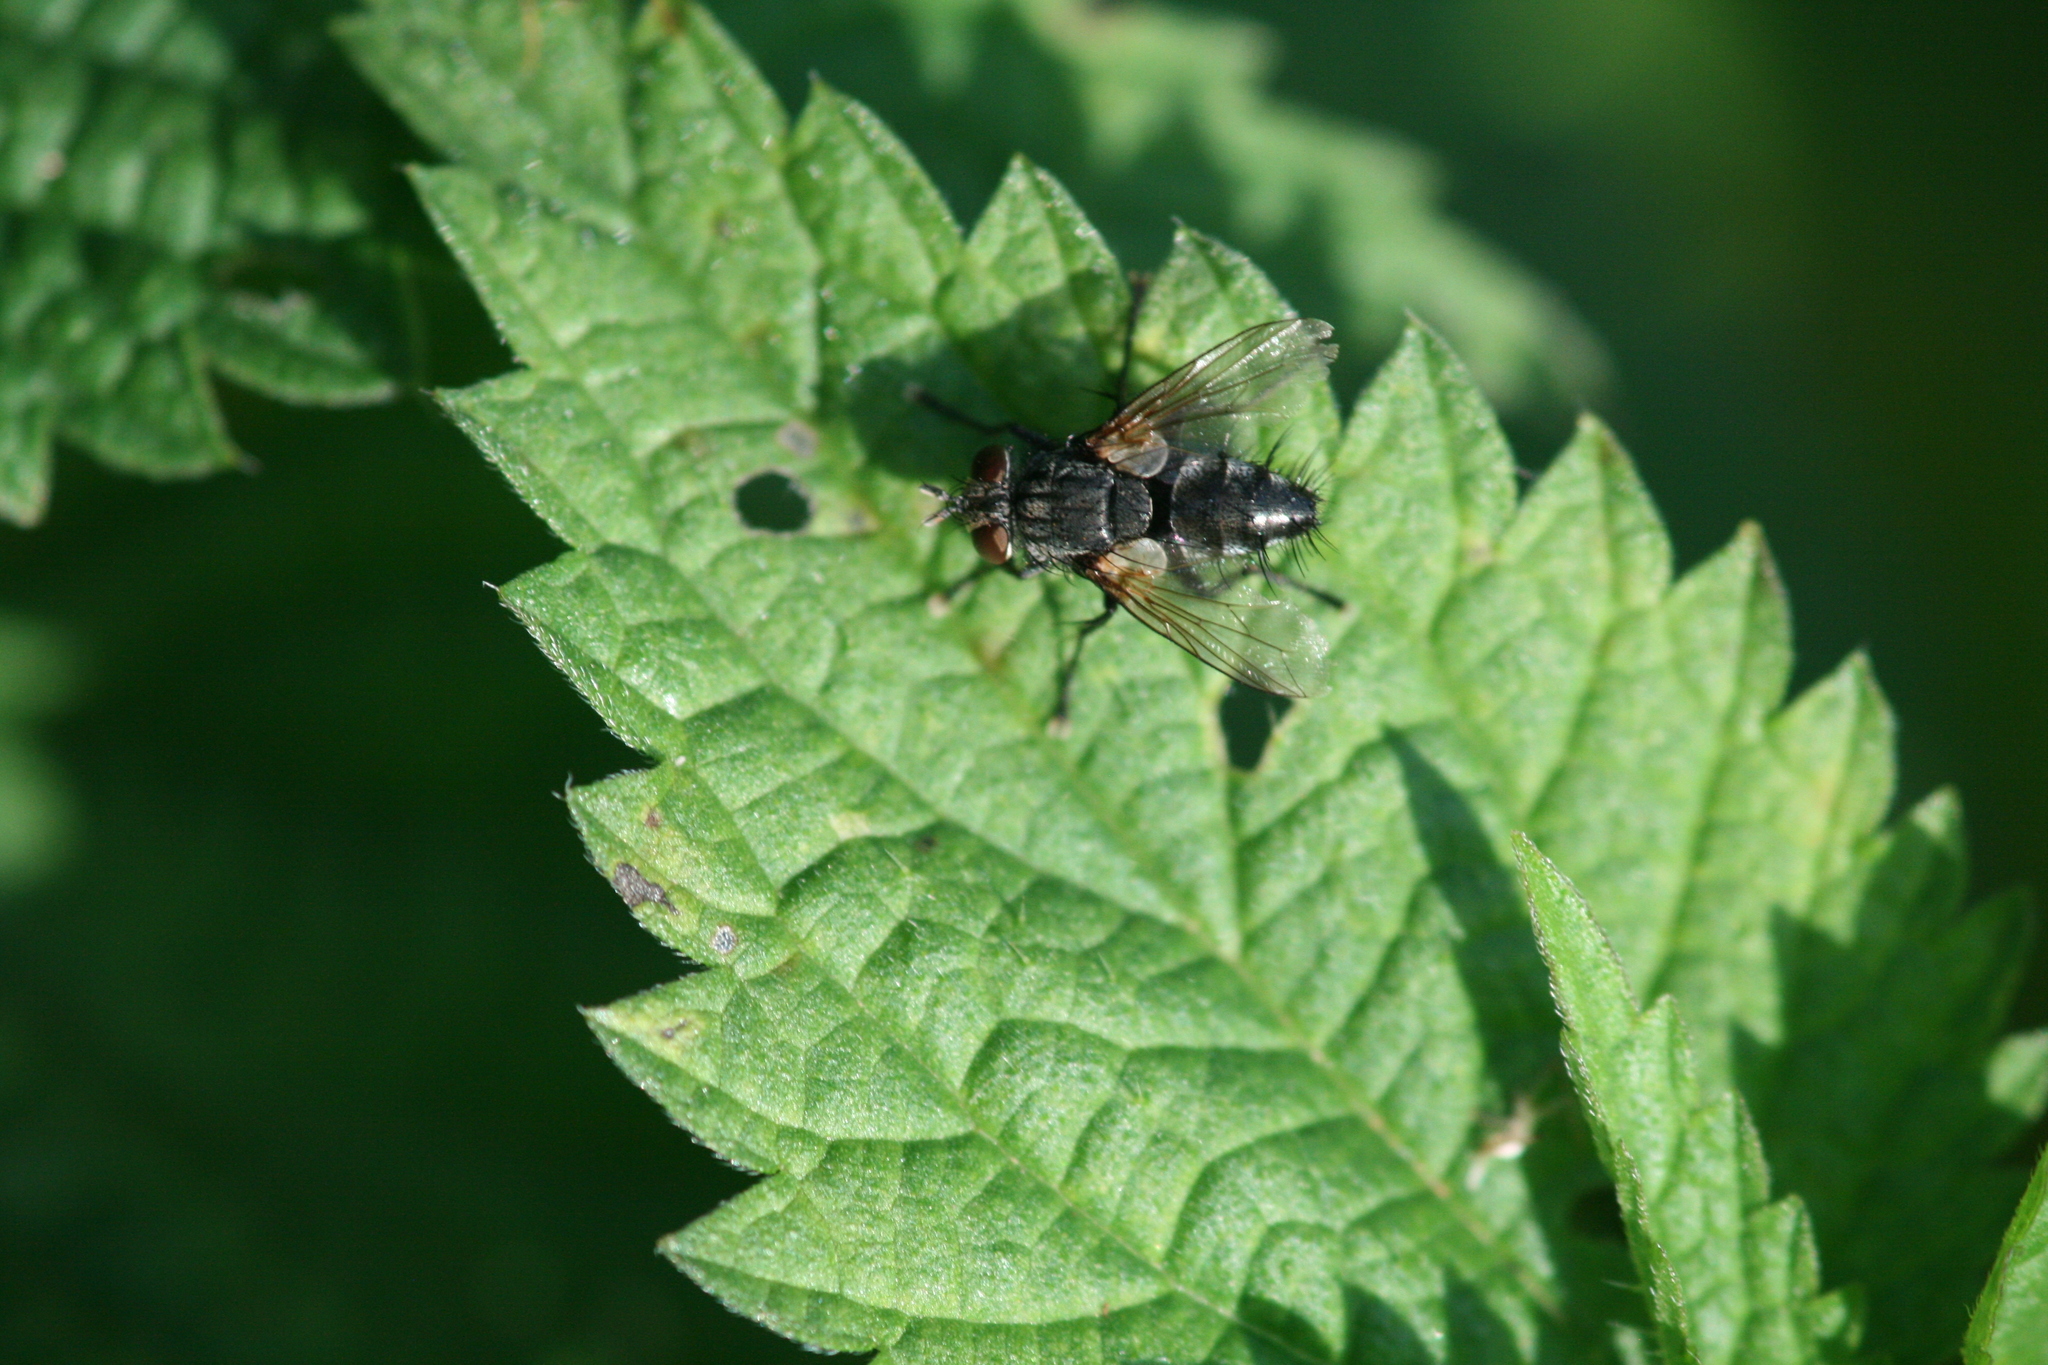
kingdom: Animalia
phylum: Arthropoda
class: Insecta
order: Diptera
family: Tachinidae
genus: Voria
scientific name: Voria ruralis
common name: Parasitic fly
